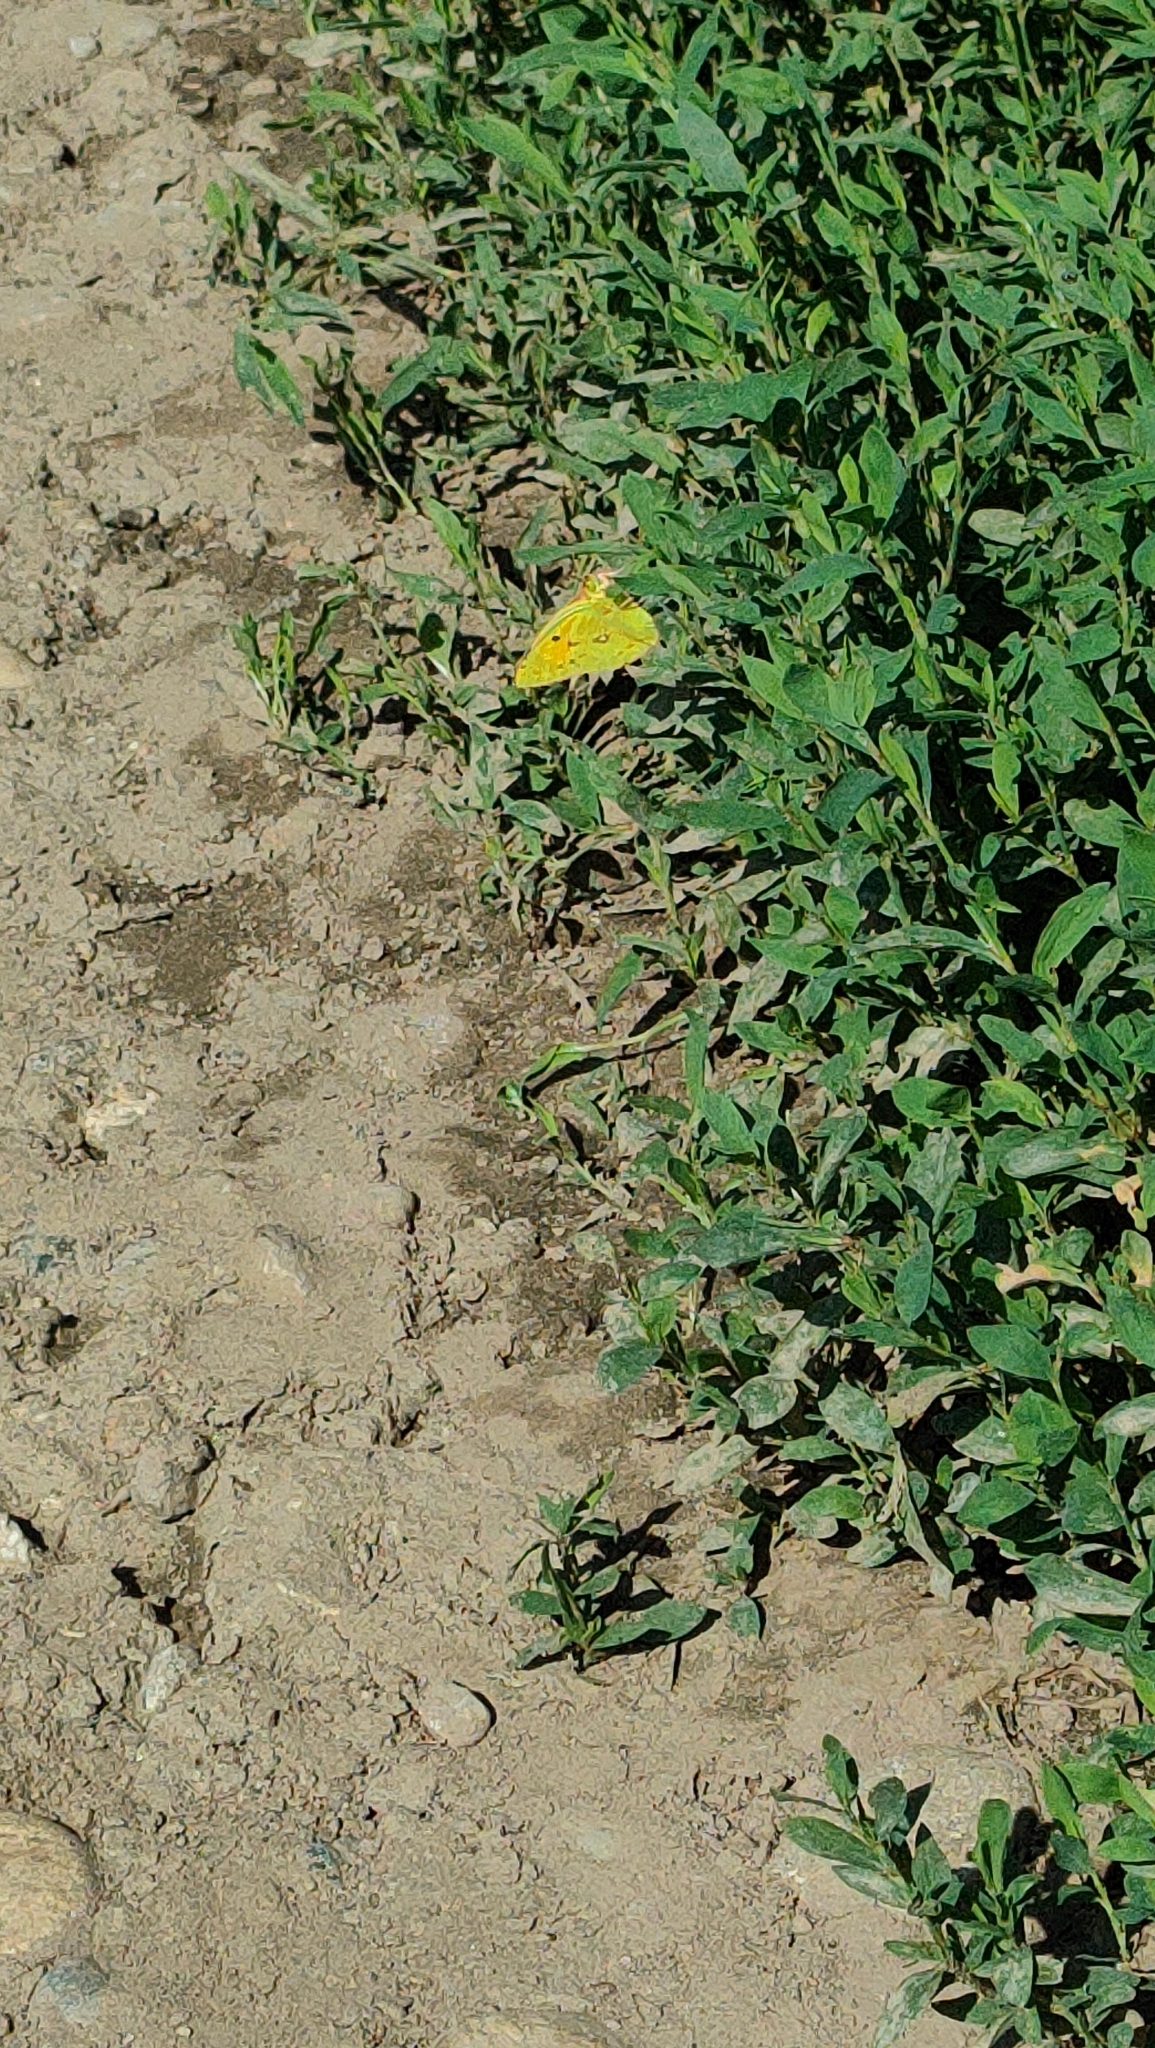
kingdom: Animalia
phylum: Arthropoda
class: Insecta
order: Lepidoptera
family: Pieridae
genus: Colias
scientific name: Colias croceus
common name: Clouded yellow
